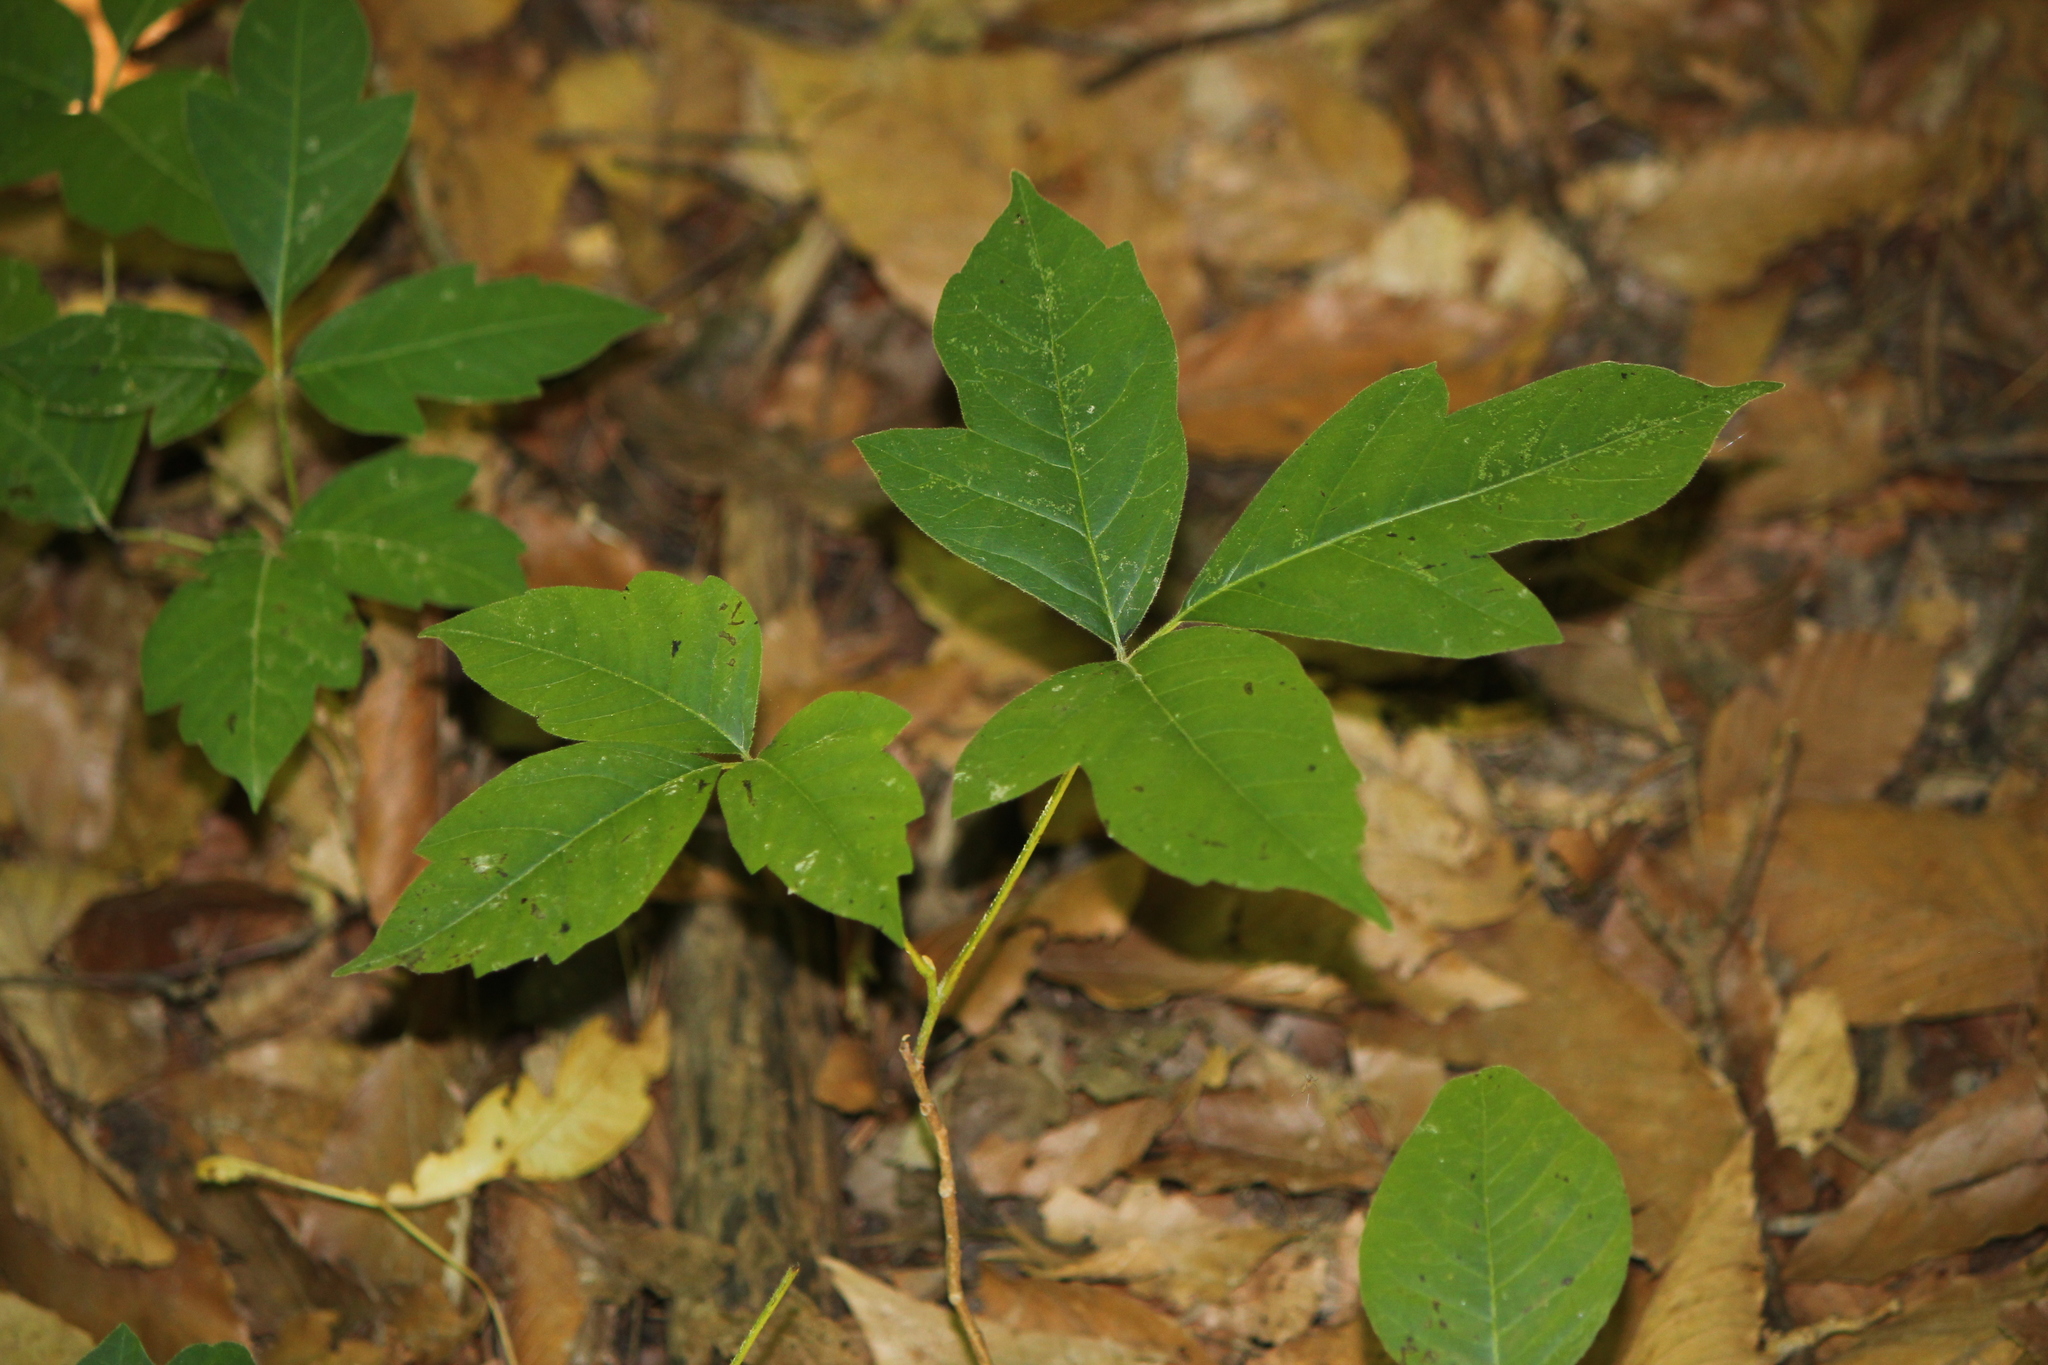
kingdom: Plantae
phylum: Tracheophyta
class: Magnoliopsida
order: Sapindales
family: Anacardiaceae
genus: Toxicodendron
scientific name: Toxicodendron radicans
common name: Poison ivy
